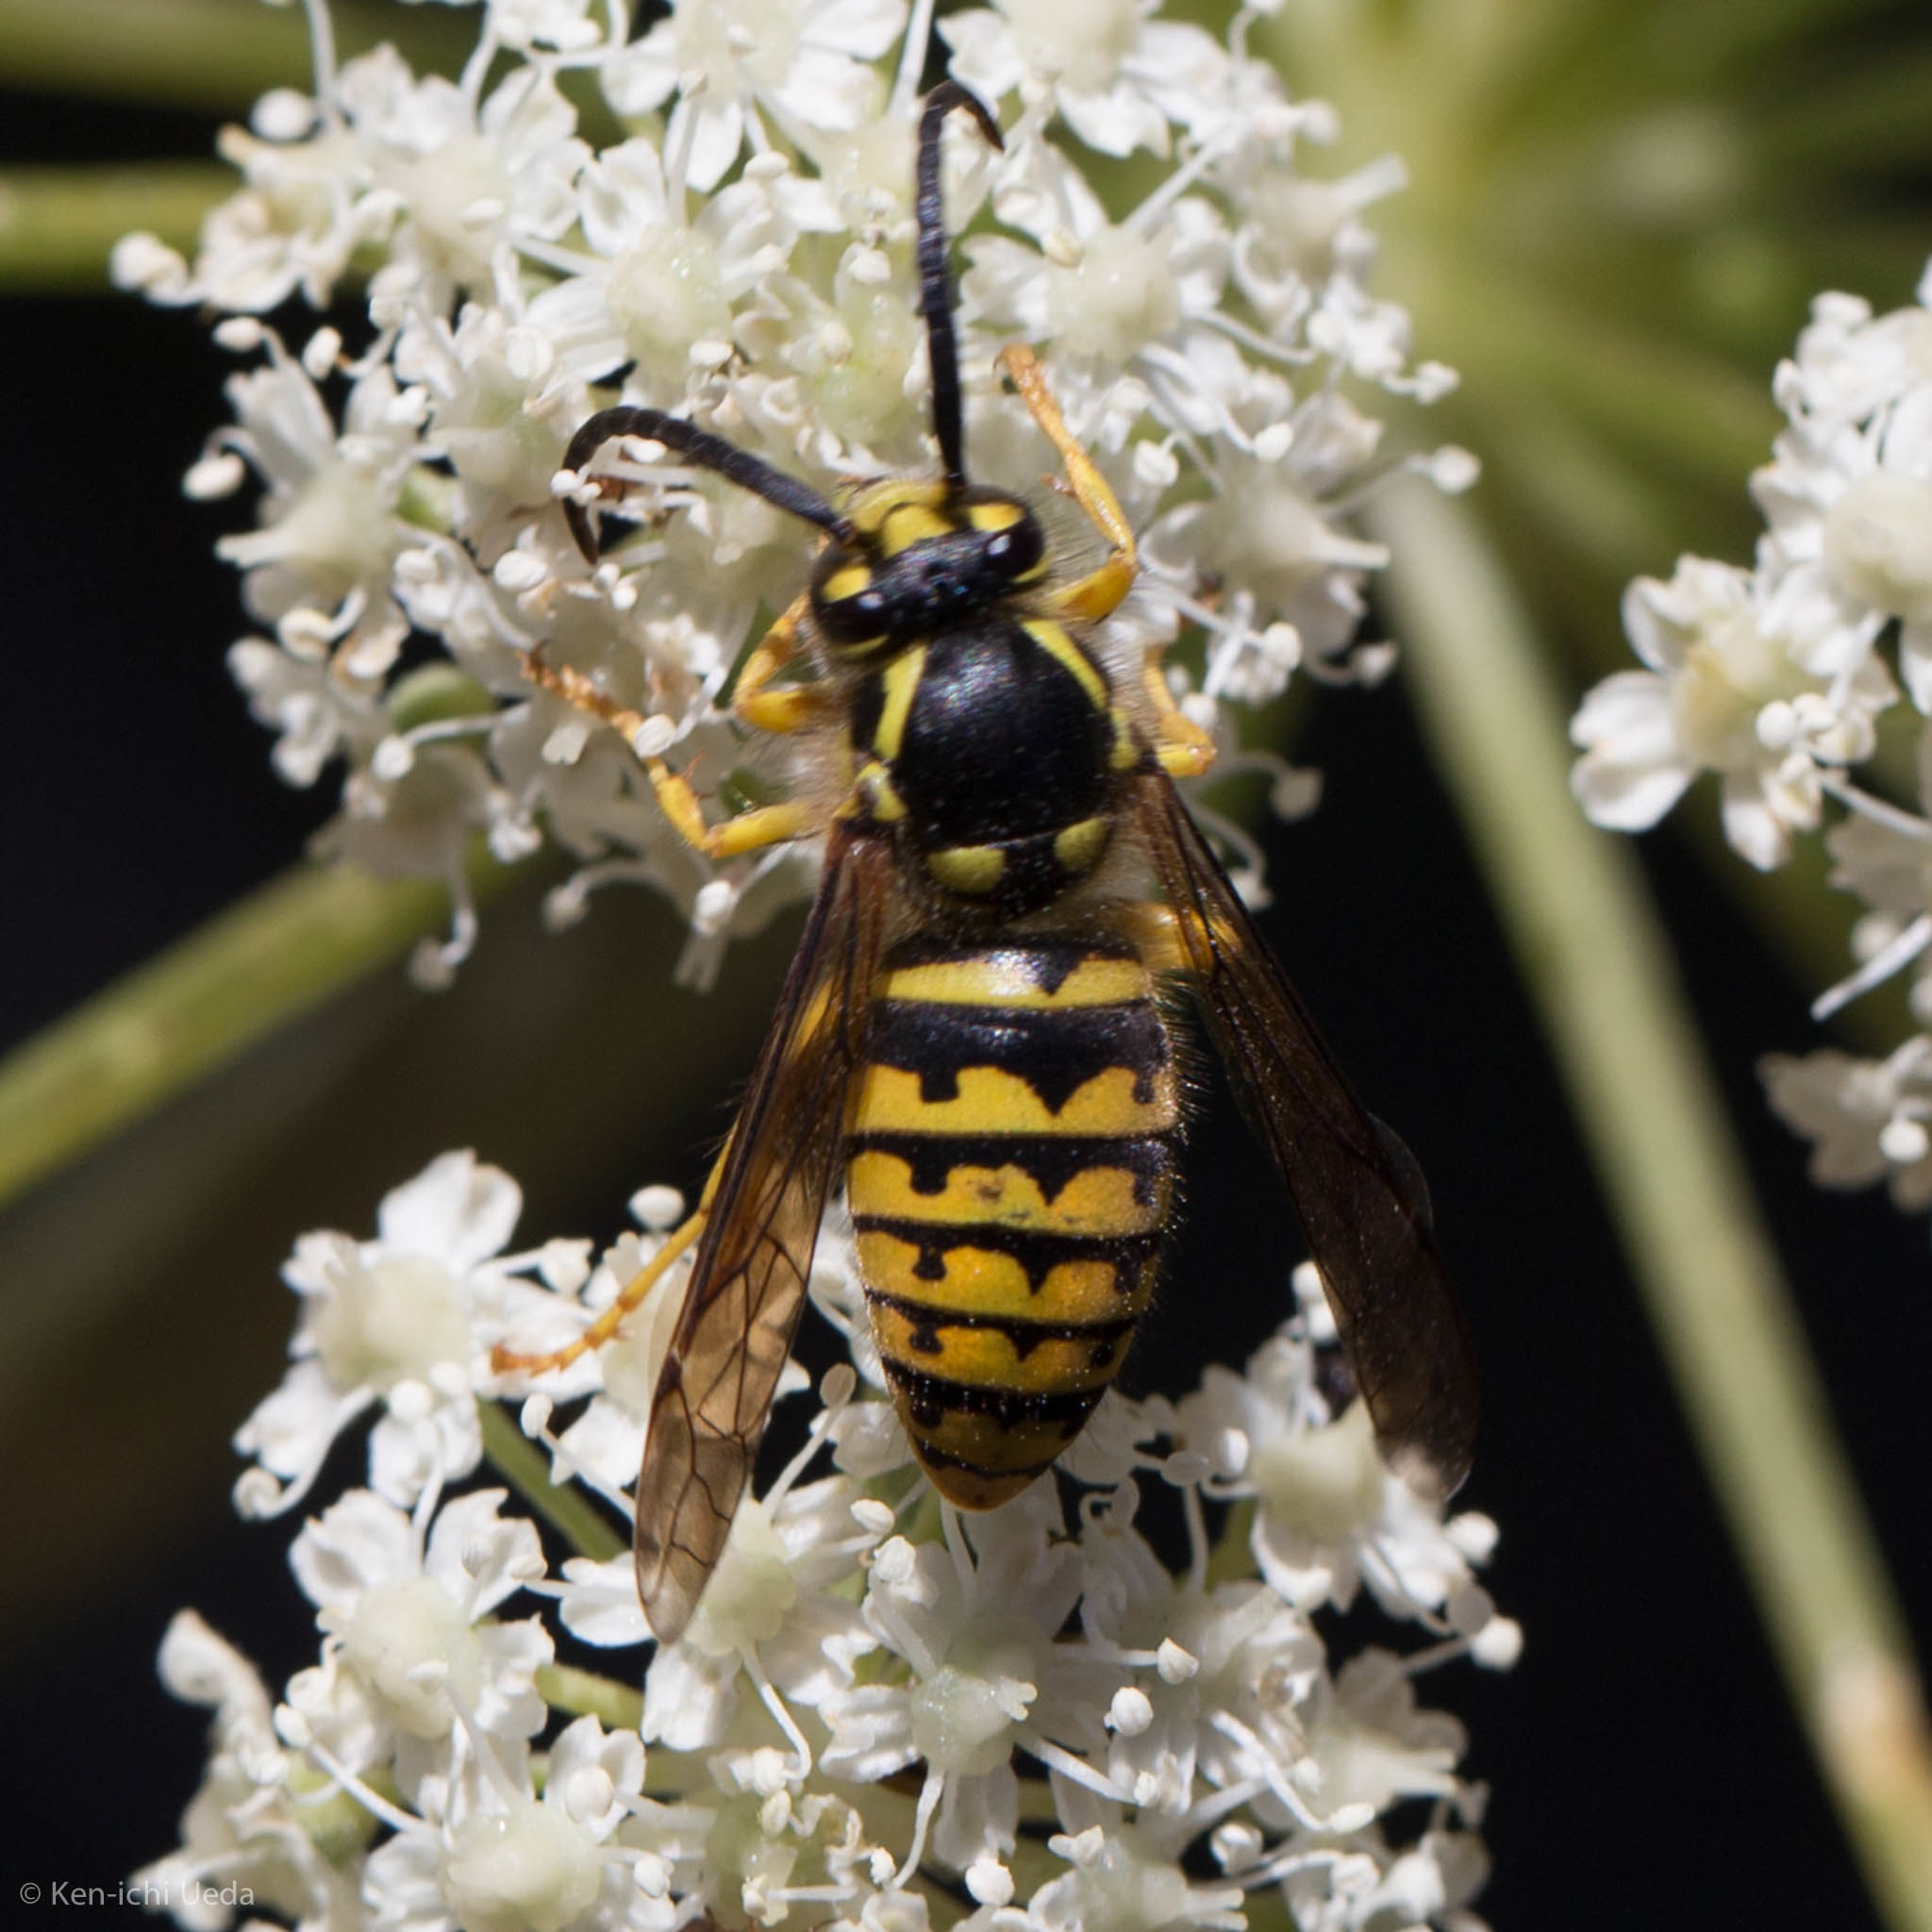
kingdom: Animalia
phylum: Arthropoda
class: Insecta
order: Hymenoptera
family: Vespidae
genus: Dolichovespula
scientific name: Dolichovespula arenaria
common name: Aerial yellowjacket
